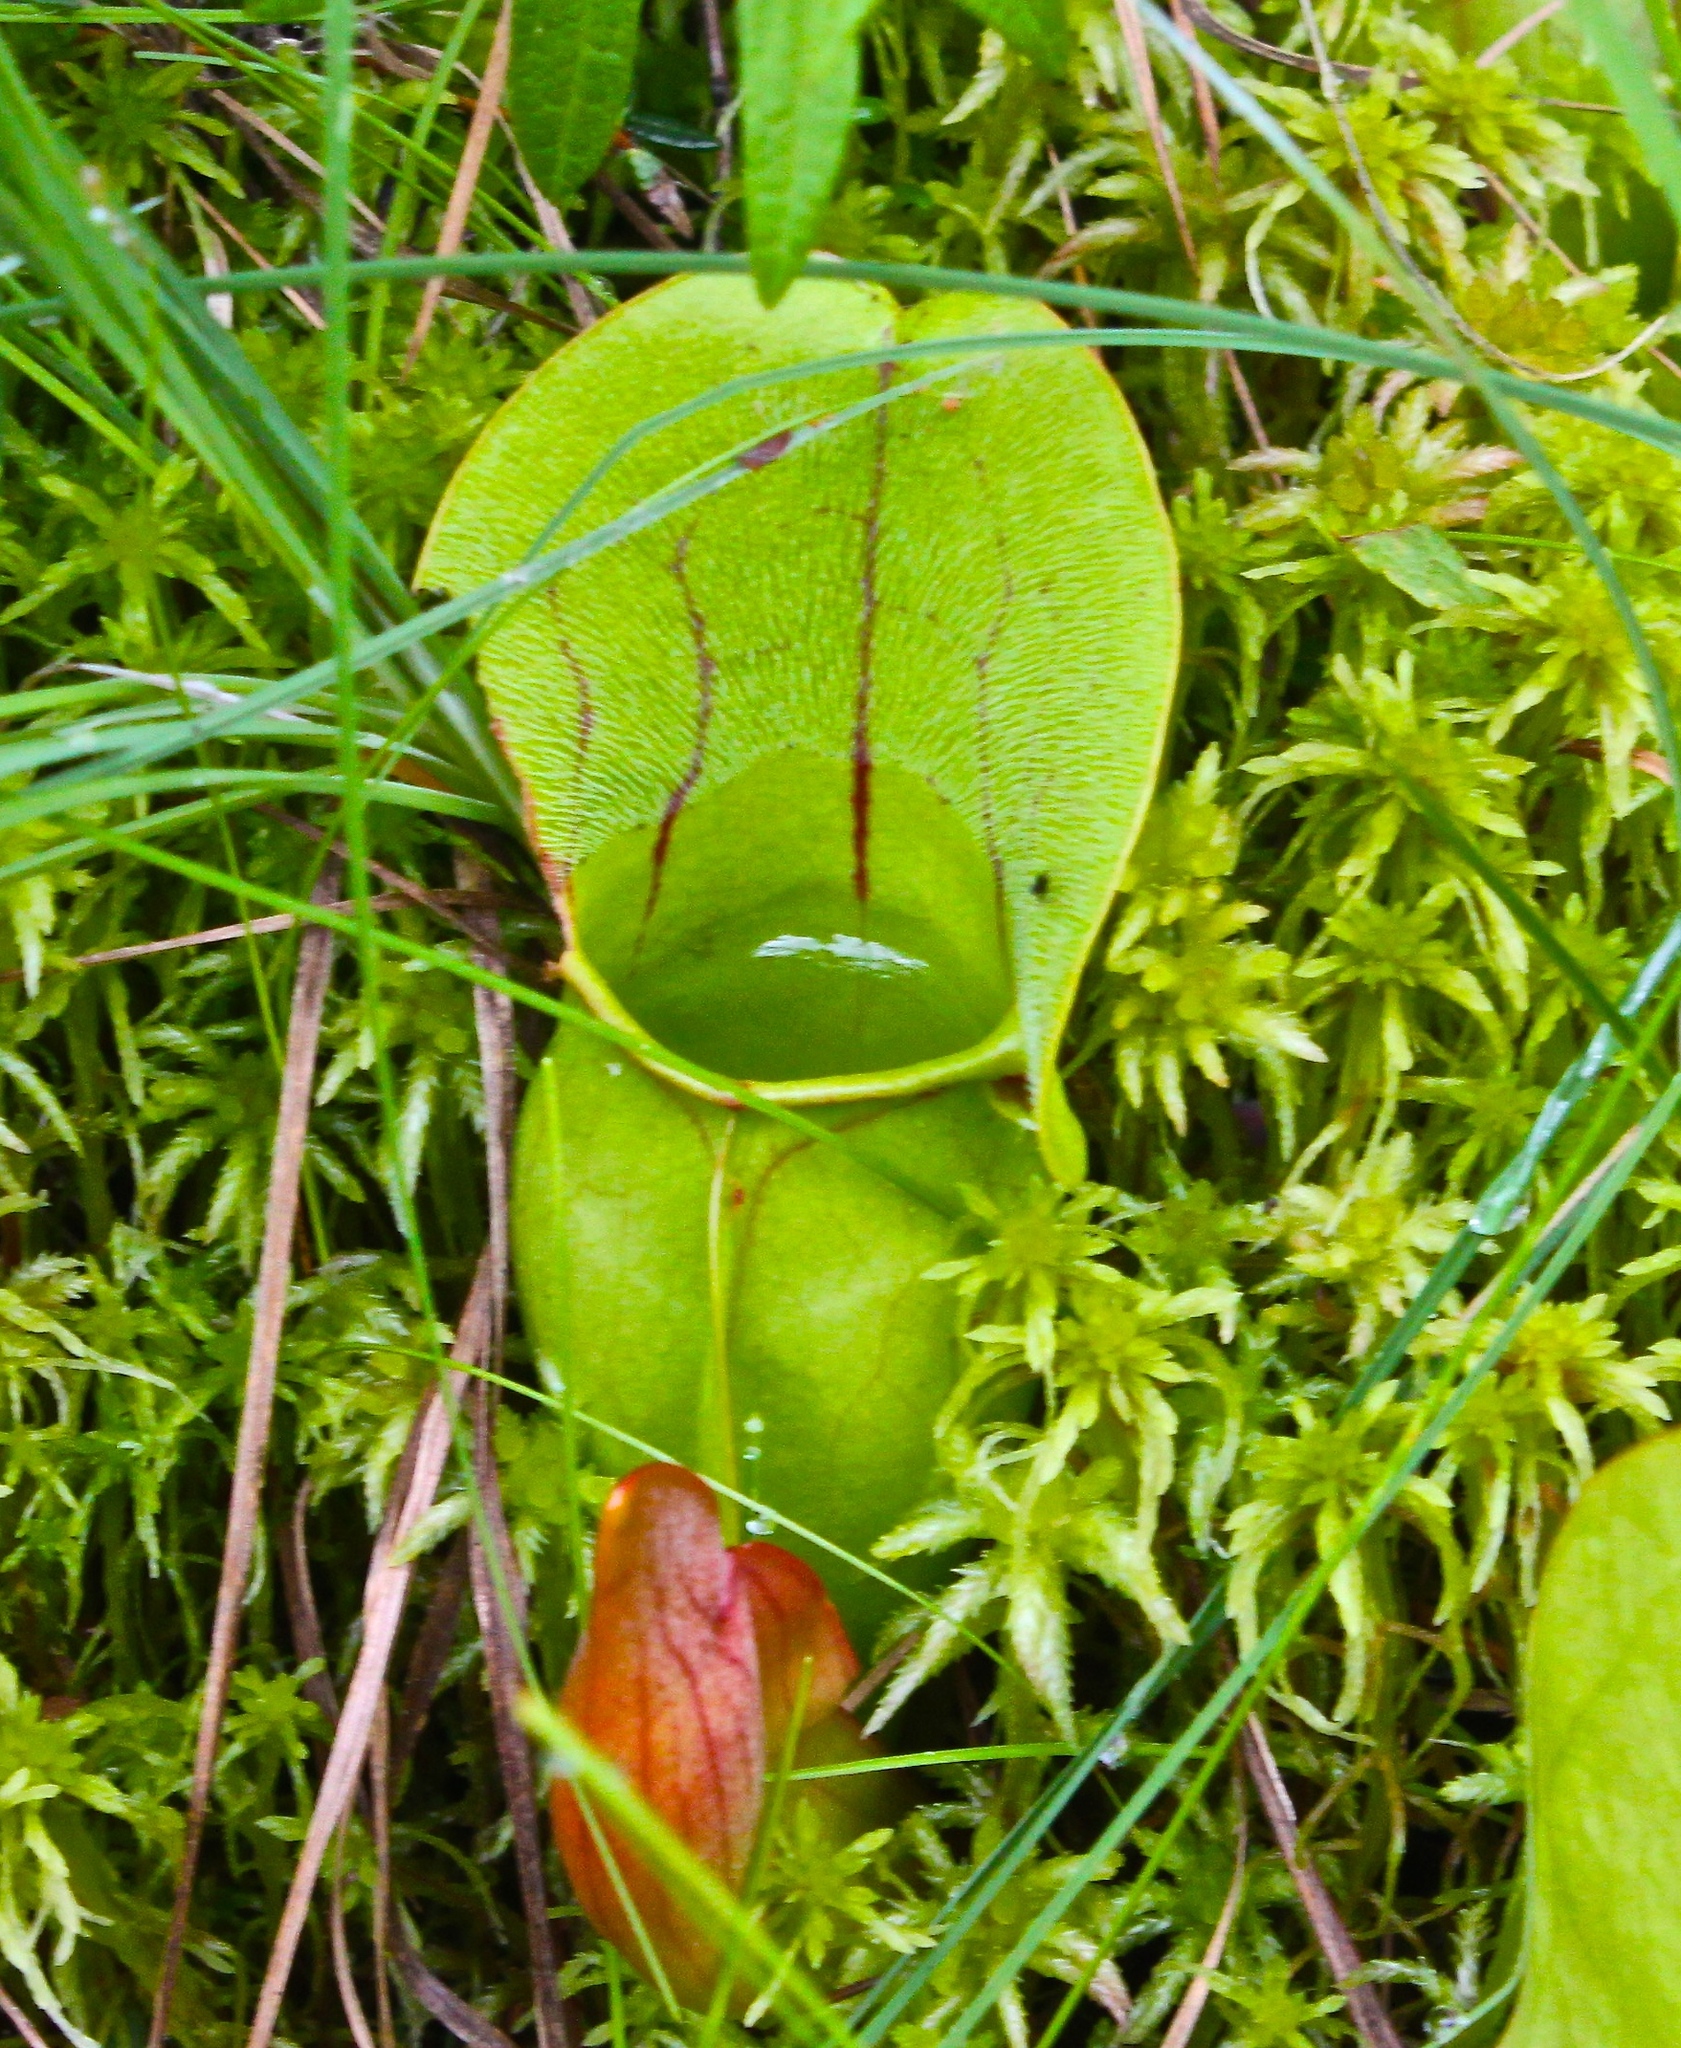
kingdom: Plantae
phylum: Tracheophyta
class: Magnoliopsida
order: Ericales
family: Sarraceniaceae
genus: Sarracenia
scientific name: Sarracenia purpurea
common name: Pitcherplant
